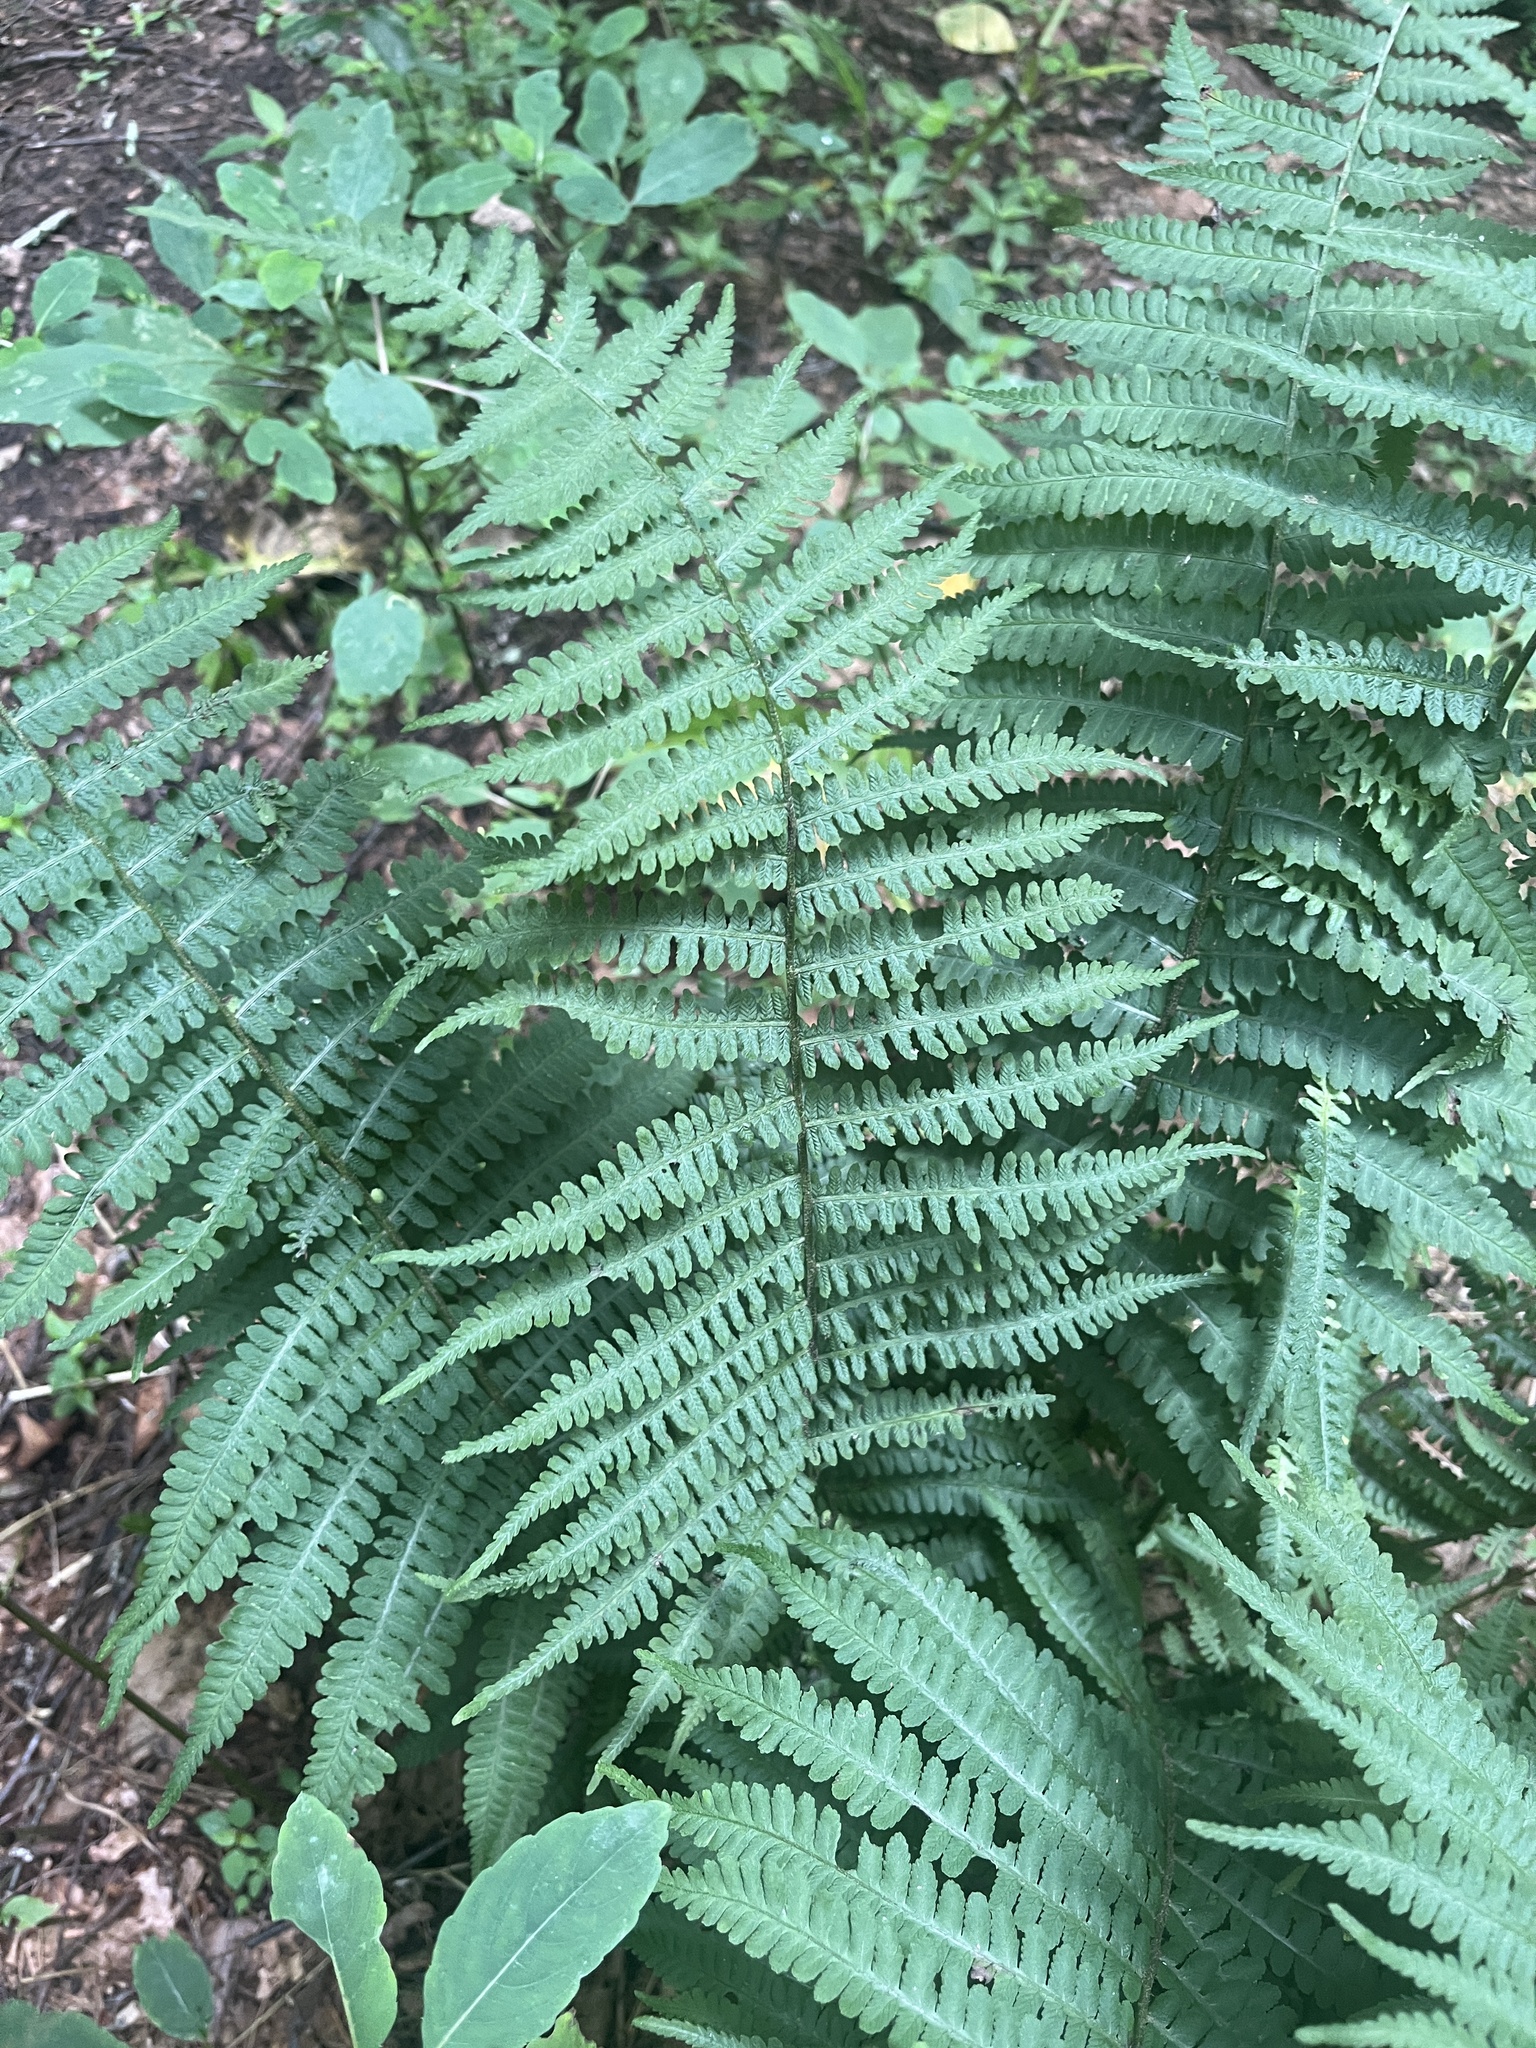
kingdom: Plantae
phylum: Tracheophyta
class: Polypodiopsida
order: Polypodiales
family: Athyriaceae
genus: Deparia
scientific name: Deparia acrostichoides
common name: Silver false spleenwort
